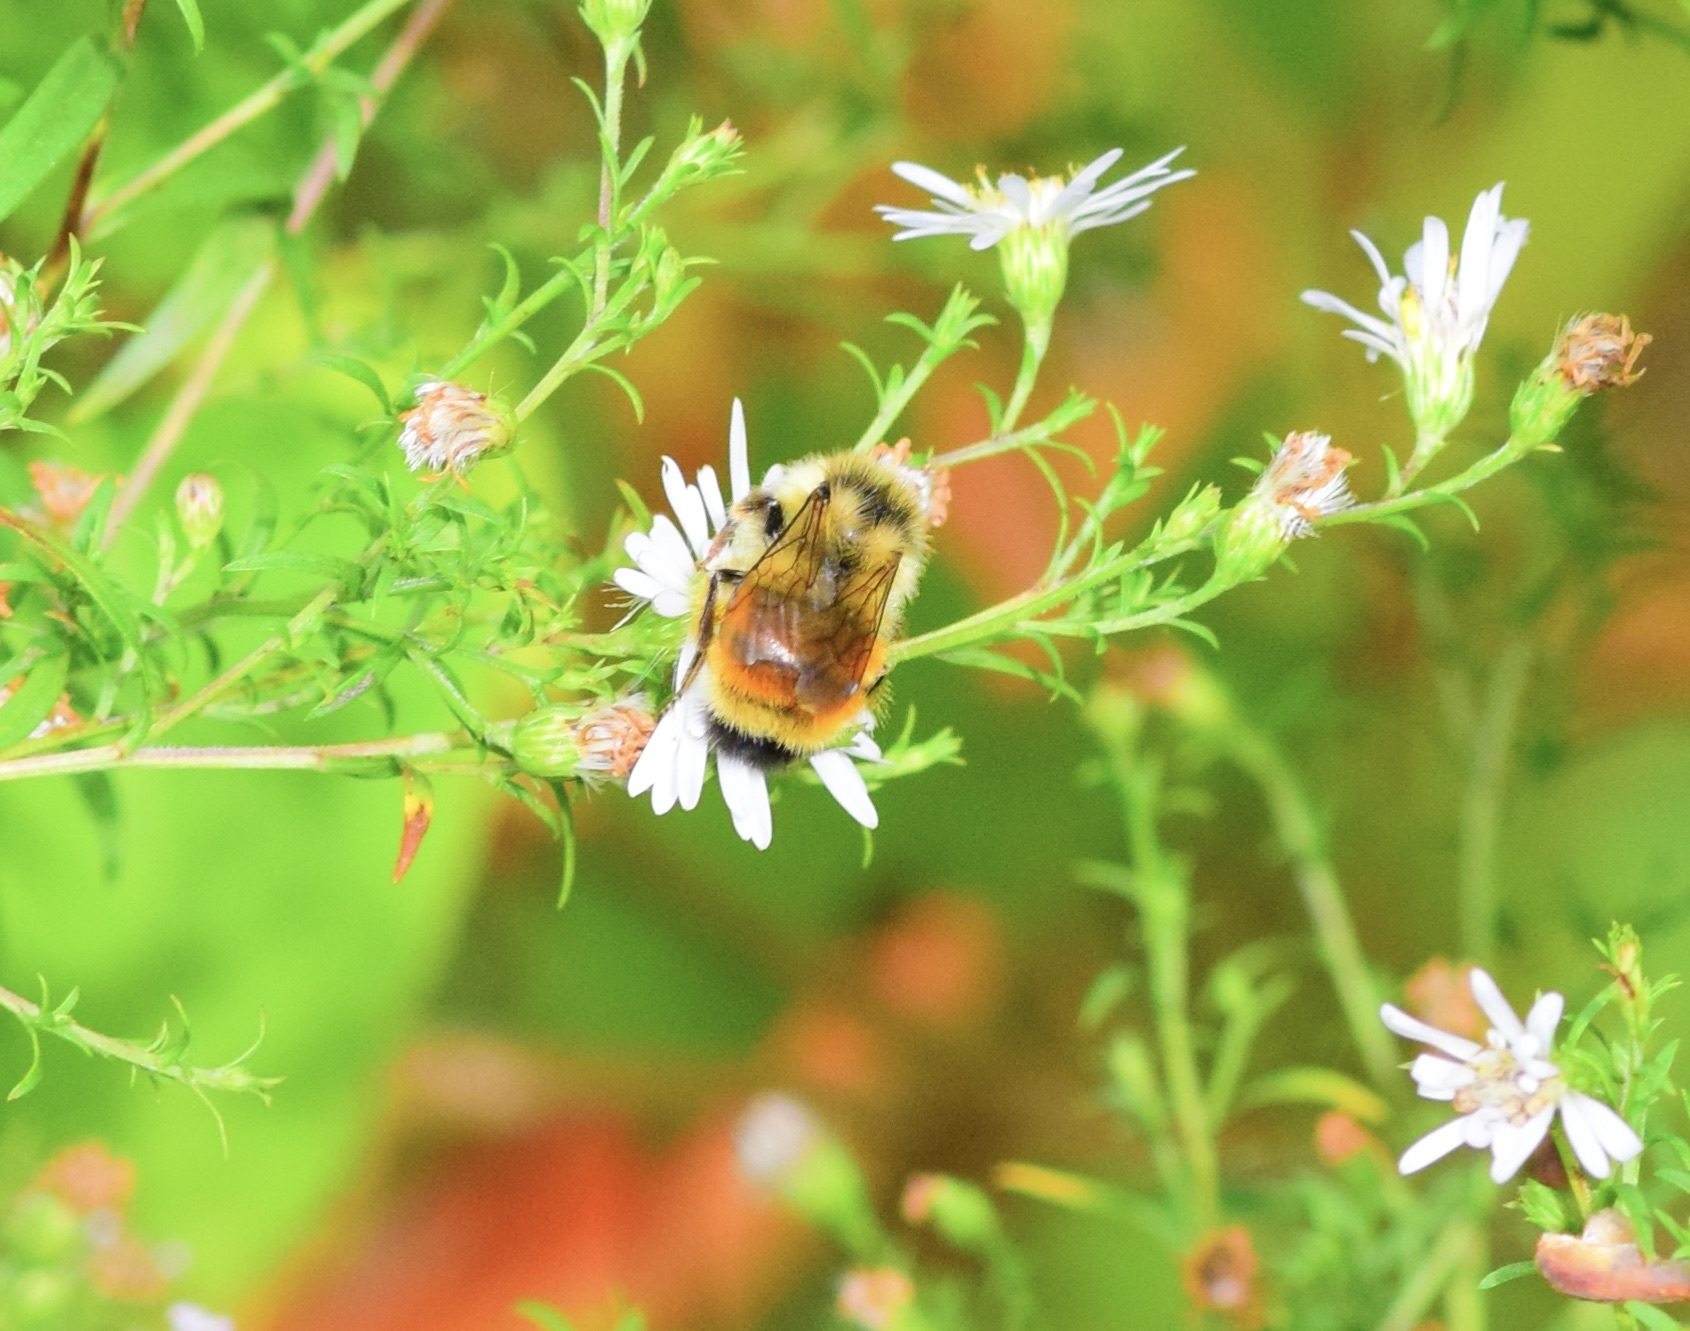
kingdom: Animalia
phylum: Arthropoda
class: Insecta
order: Hymenoptera
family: Apidae
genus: Bombus
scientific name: Bombus ternarius
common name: Tri-colored bumble bee
